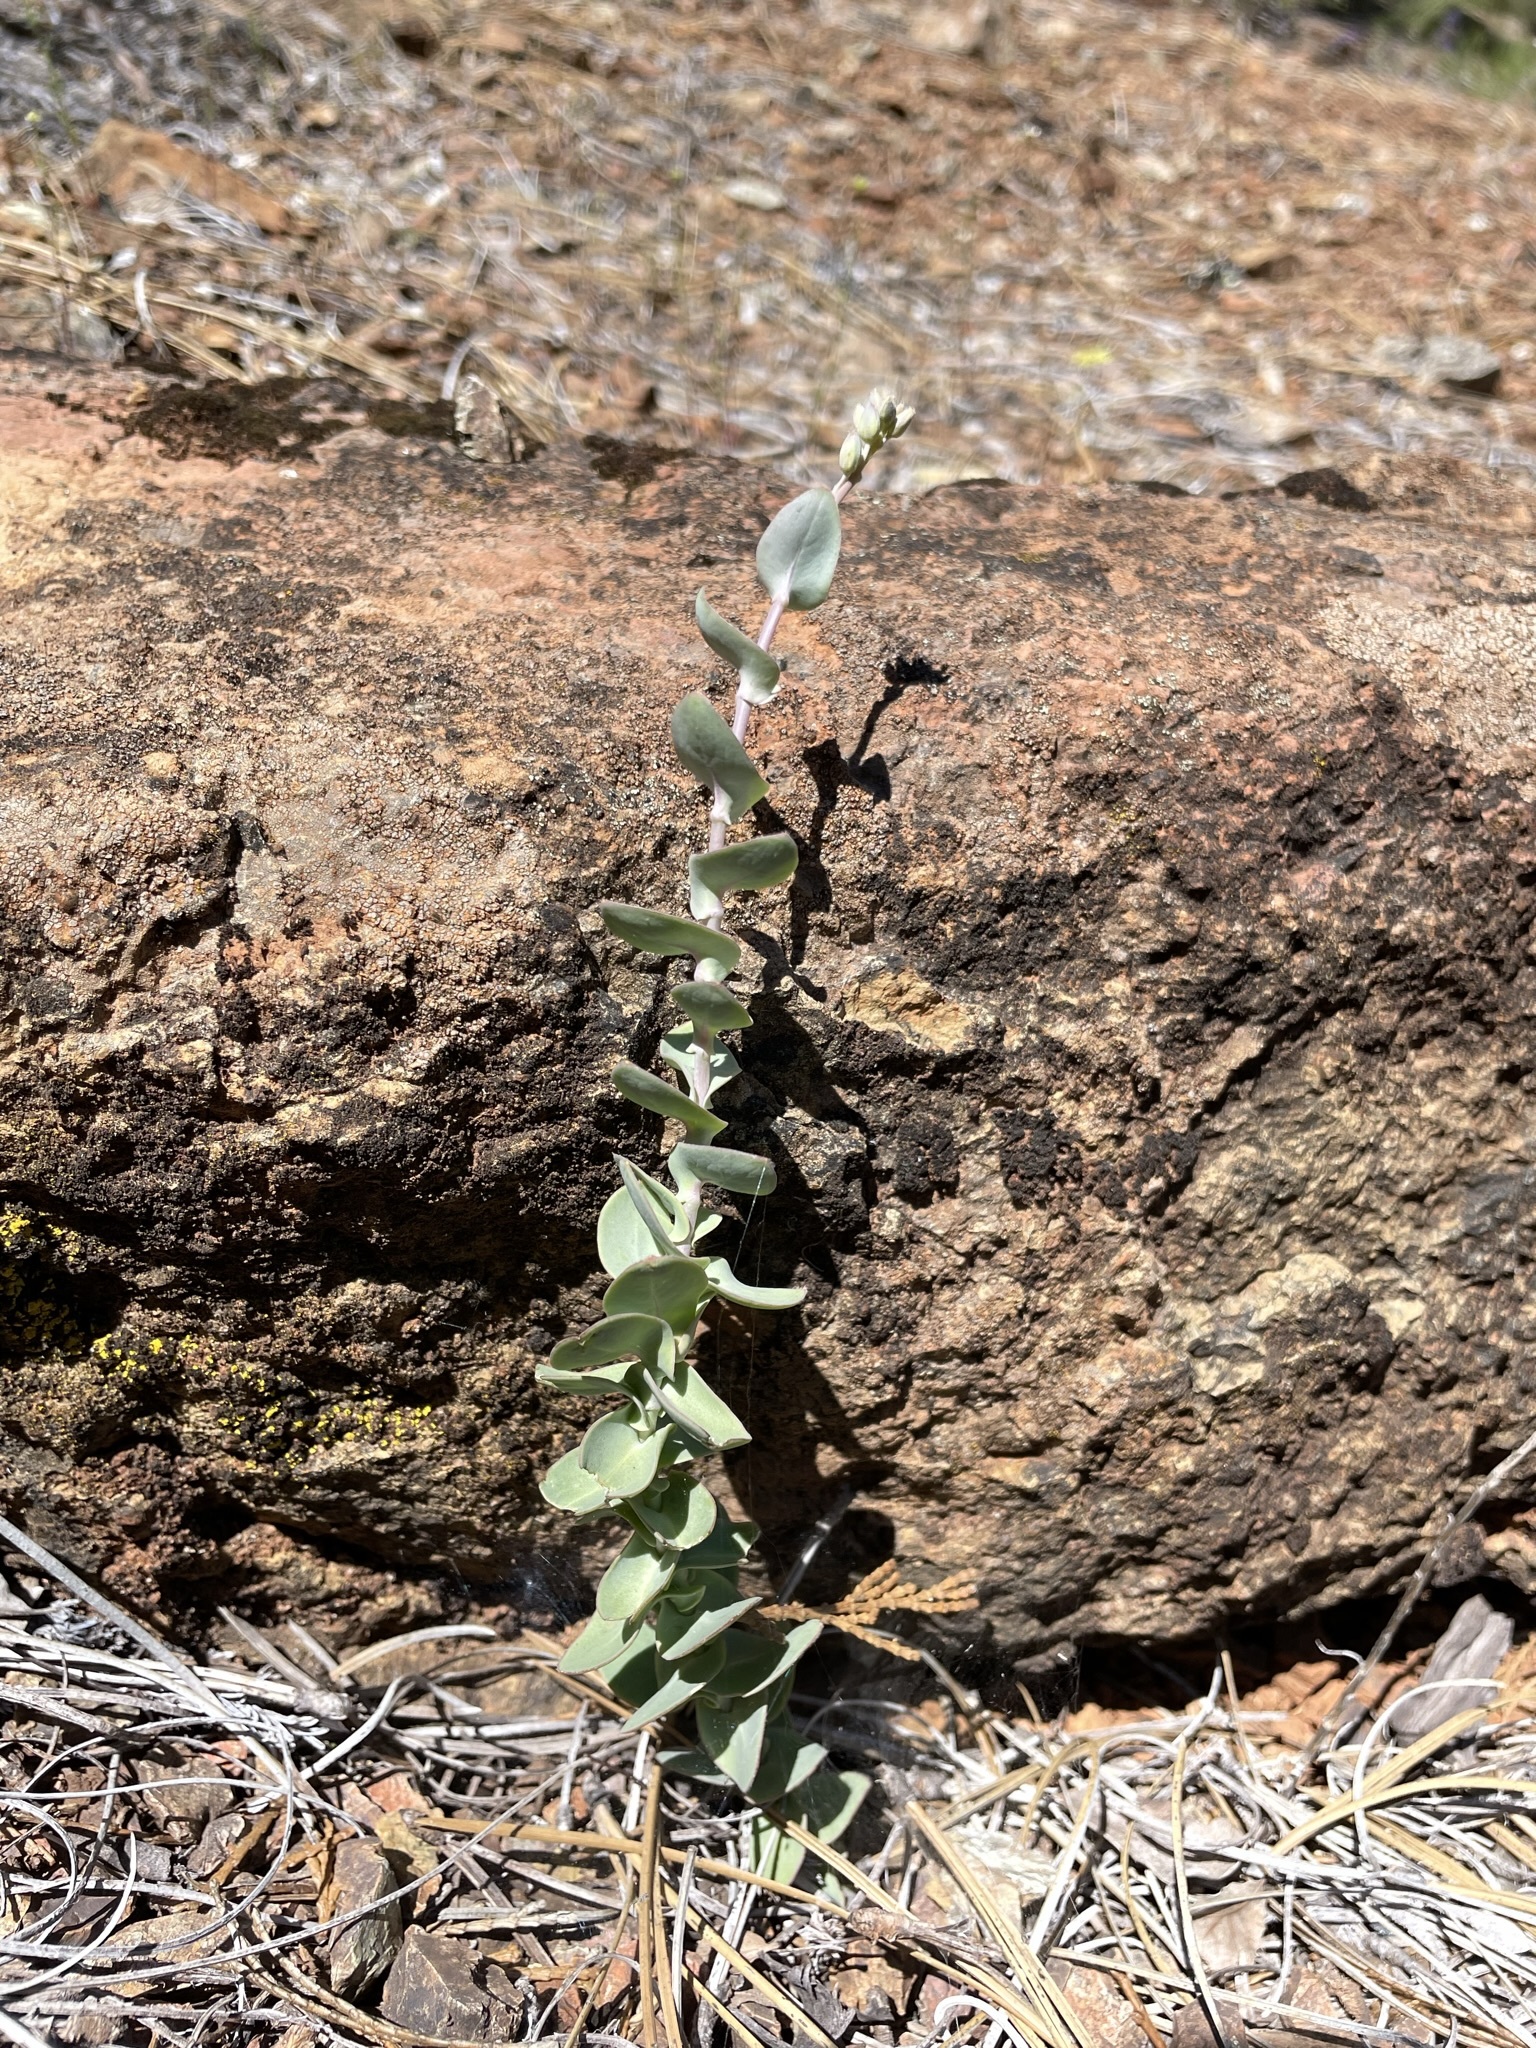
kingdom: Plantae
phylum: Tracheophyta
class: Magnoliopsida
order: Brassicales
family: Brassicaceae
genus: Streptanthus
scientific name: Streptanthus barbatus
